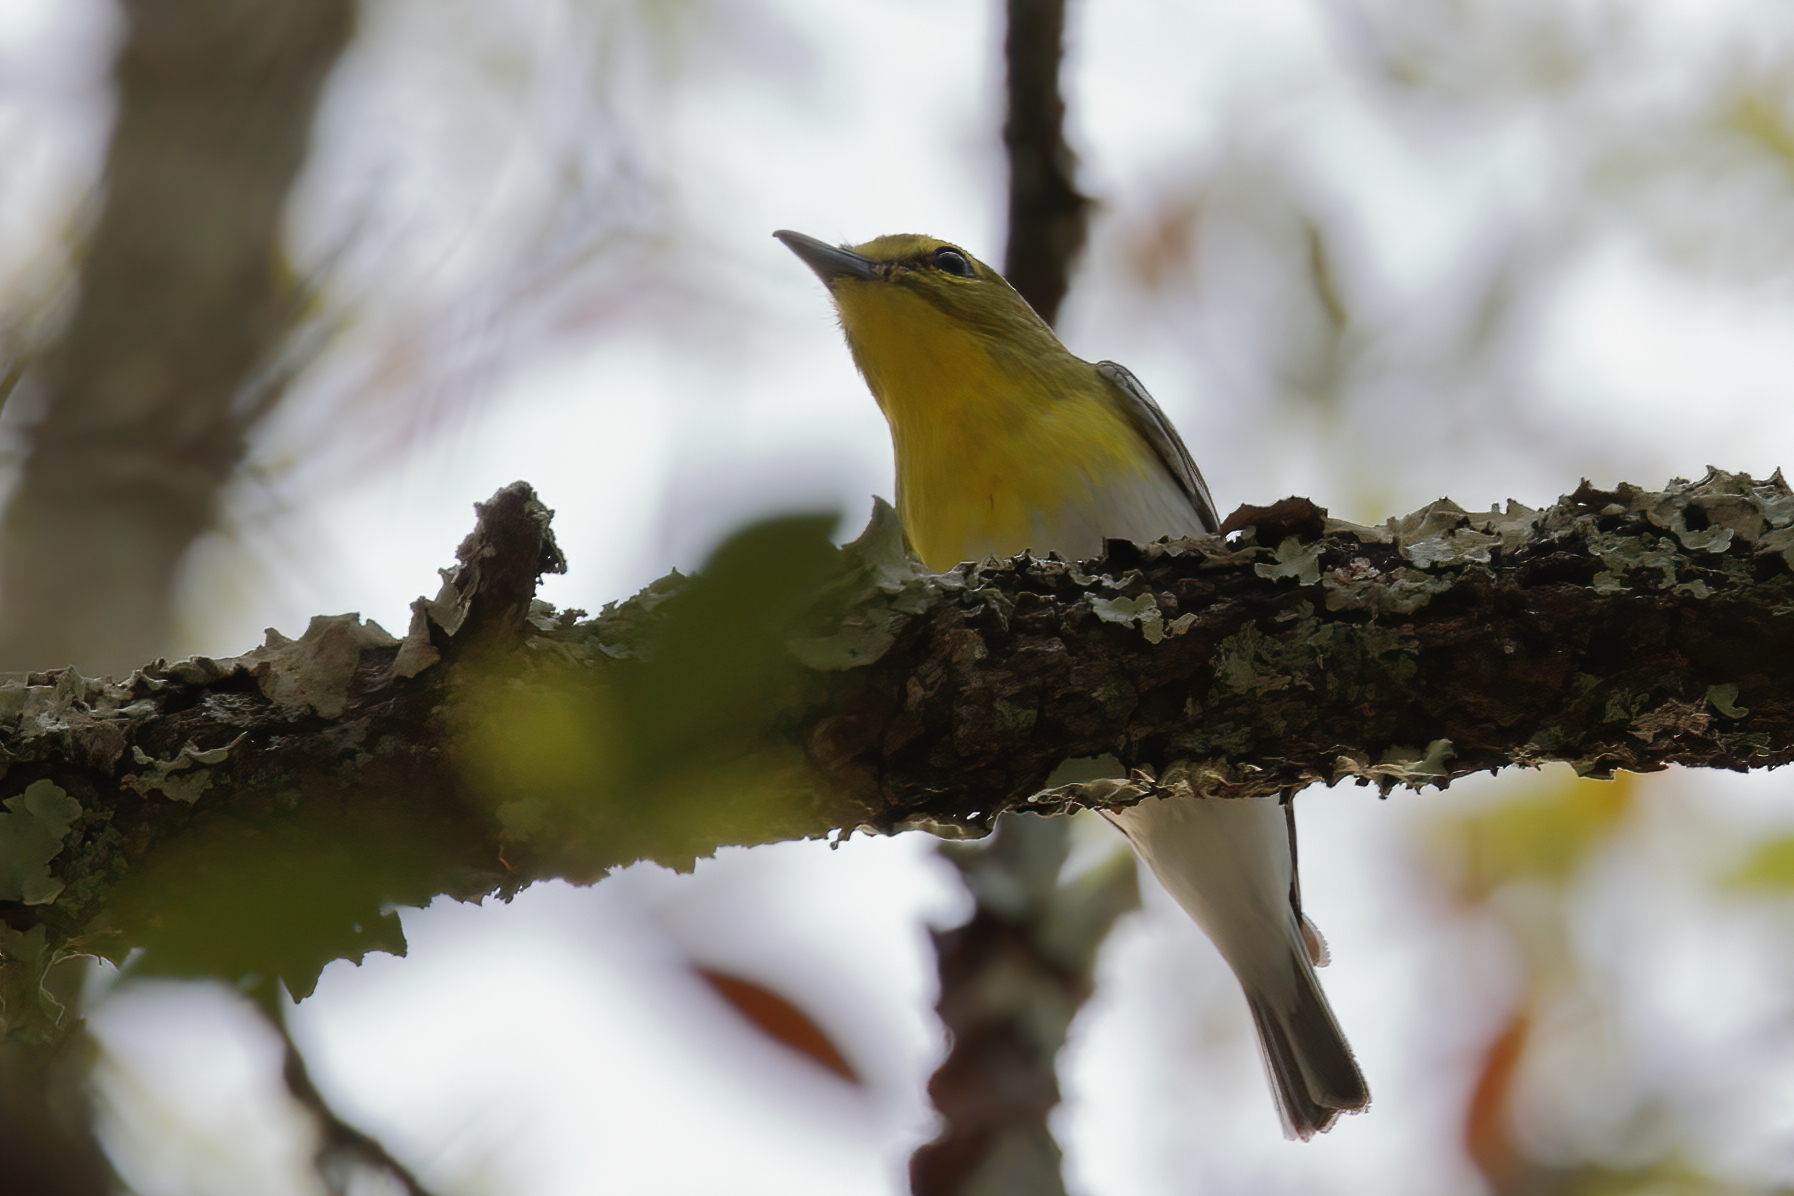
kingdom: Animalia
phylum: Chordata
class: Aves
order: Passeriformes
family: Vireonidae
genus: Vireo
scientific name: Vireo flavifrons
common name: Yellow-throated vireo
